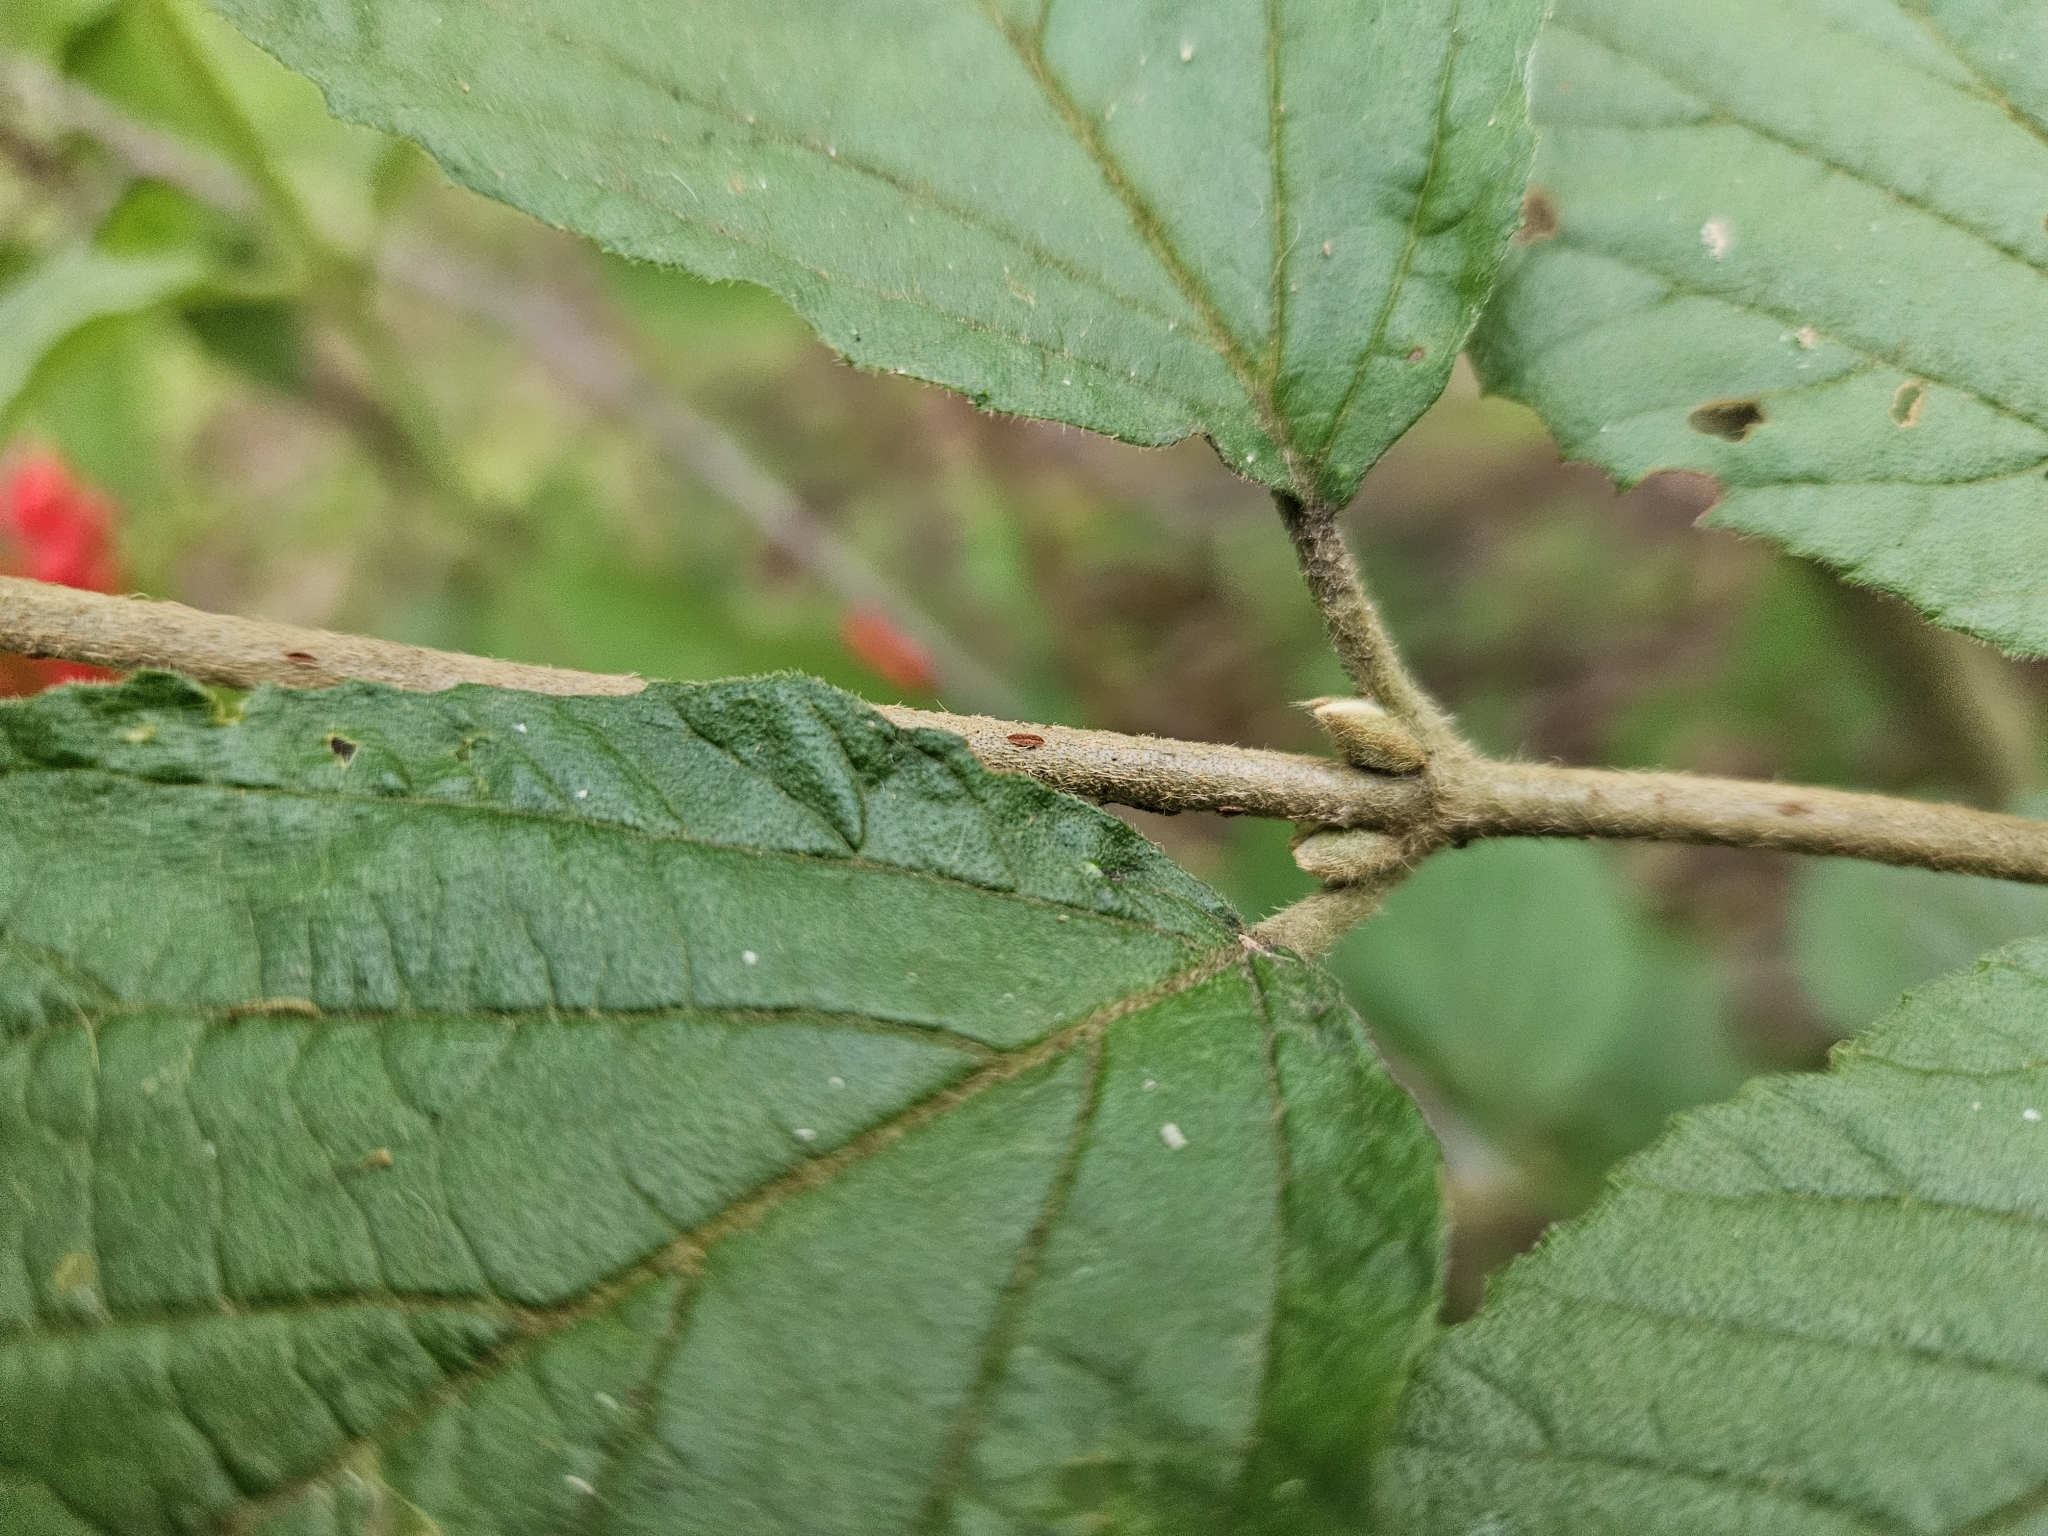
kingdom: Plantae
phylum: Tracheophyta
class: Magnoliopsida
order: Dipsacales
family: Viburnaceae
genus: Viburnum
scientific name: Viburnum dilatatum
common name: Linden arrowwood
